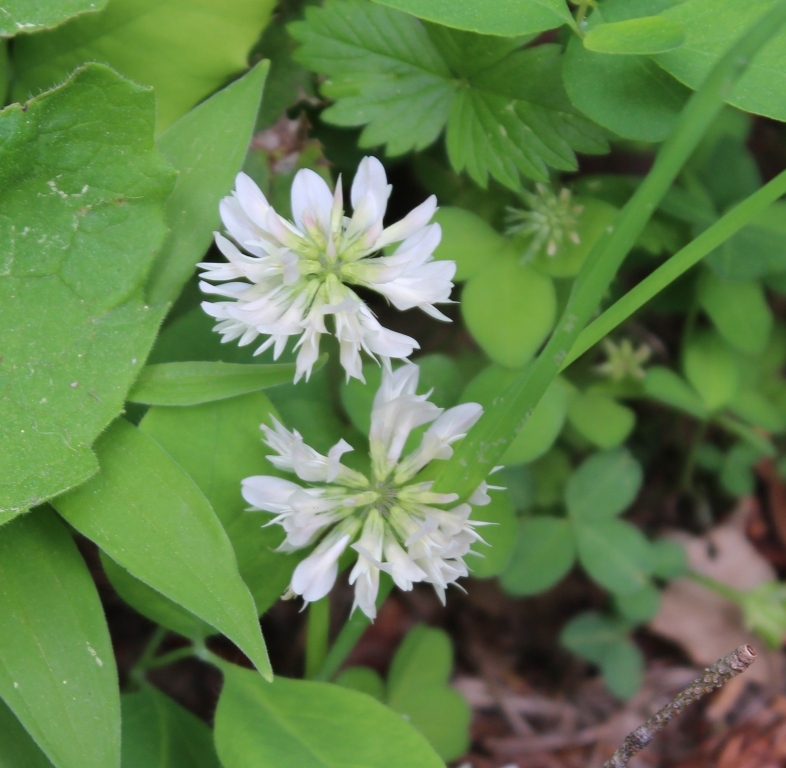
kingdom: Plantae
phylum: Tracheophyta
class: Magnoliopsida
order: Fabales
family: Fabaceae
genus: Trifolium
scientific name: Trifolium latifolium
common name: Broadleaf clover
